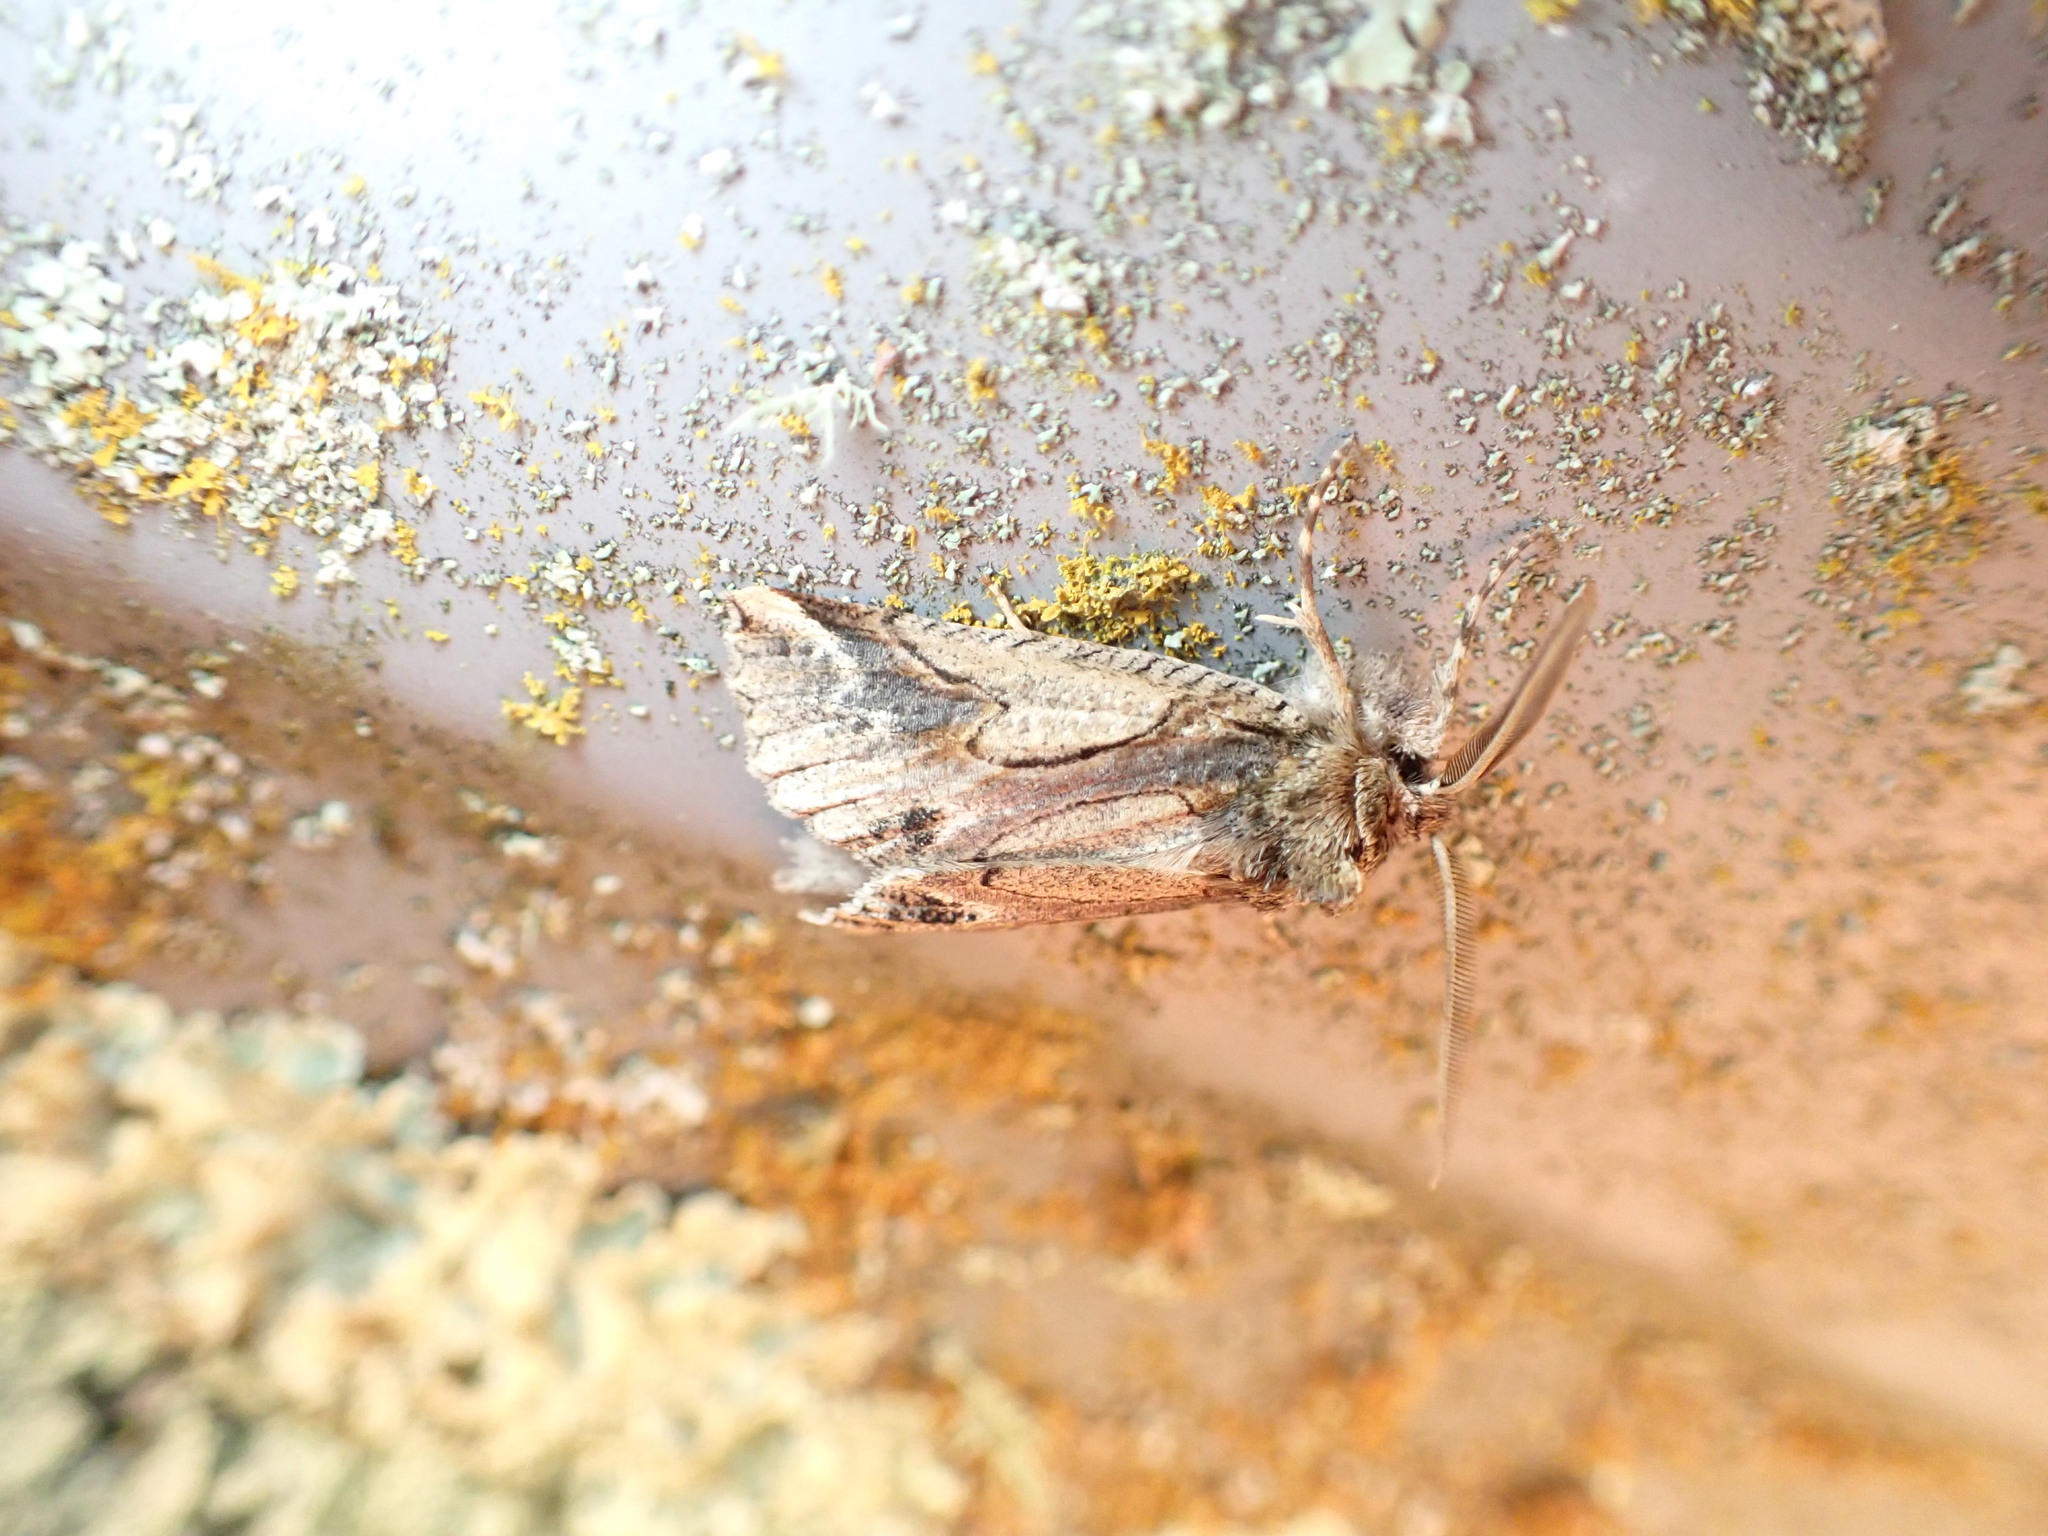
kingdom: Animalia
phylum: Arthropoda
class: Insecta
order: Lepidoptera
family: Geometridae
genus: Declana
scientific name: Declana
